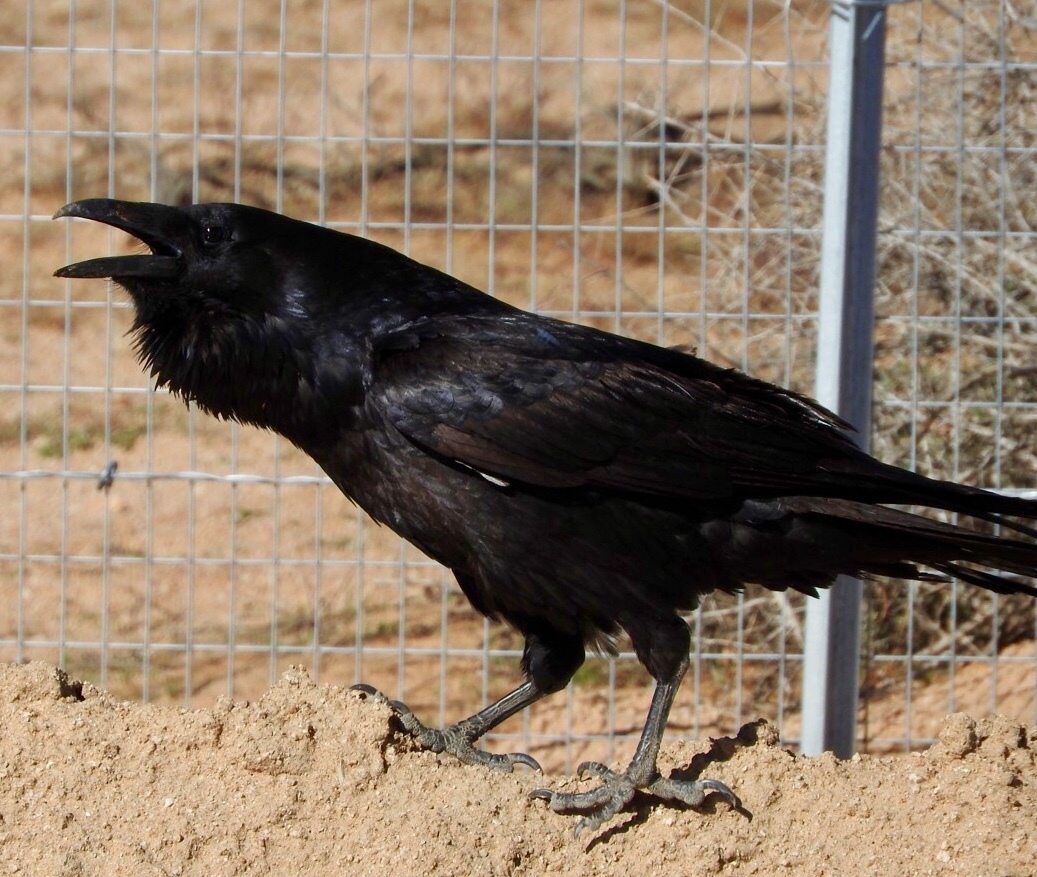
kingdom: Animalia
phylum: Chordata
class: Aves
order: Passeriformes
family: Corvidae
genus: Corvus
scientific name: Corvus corax
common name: Common raven
